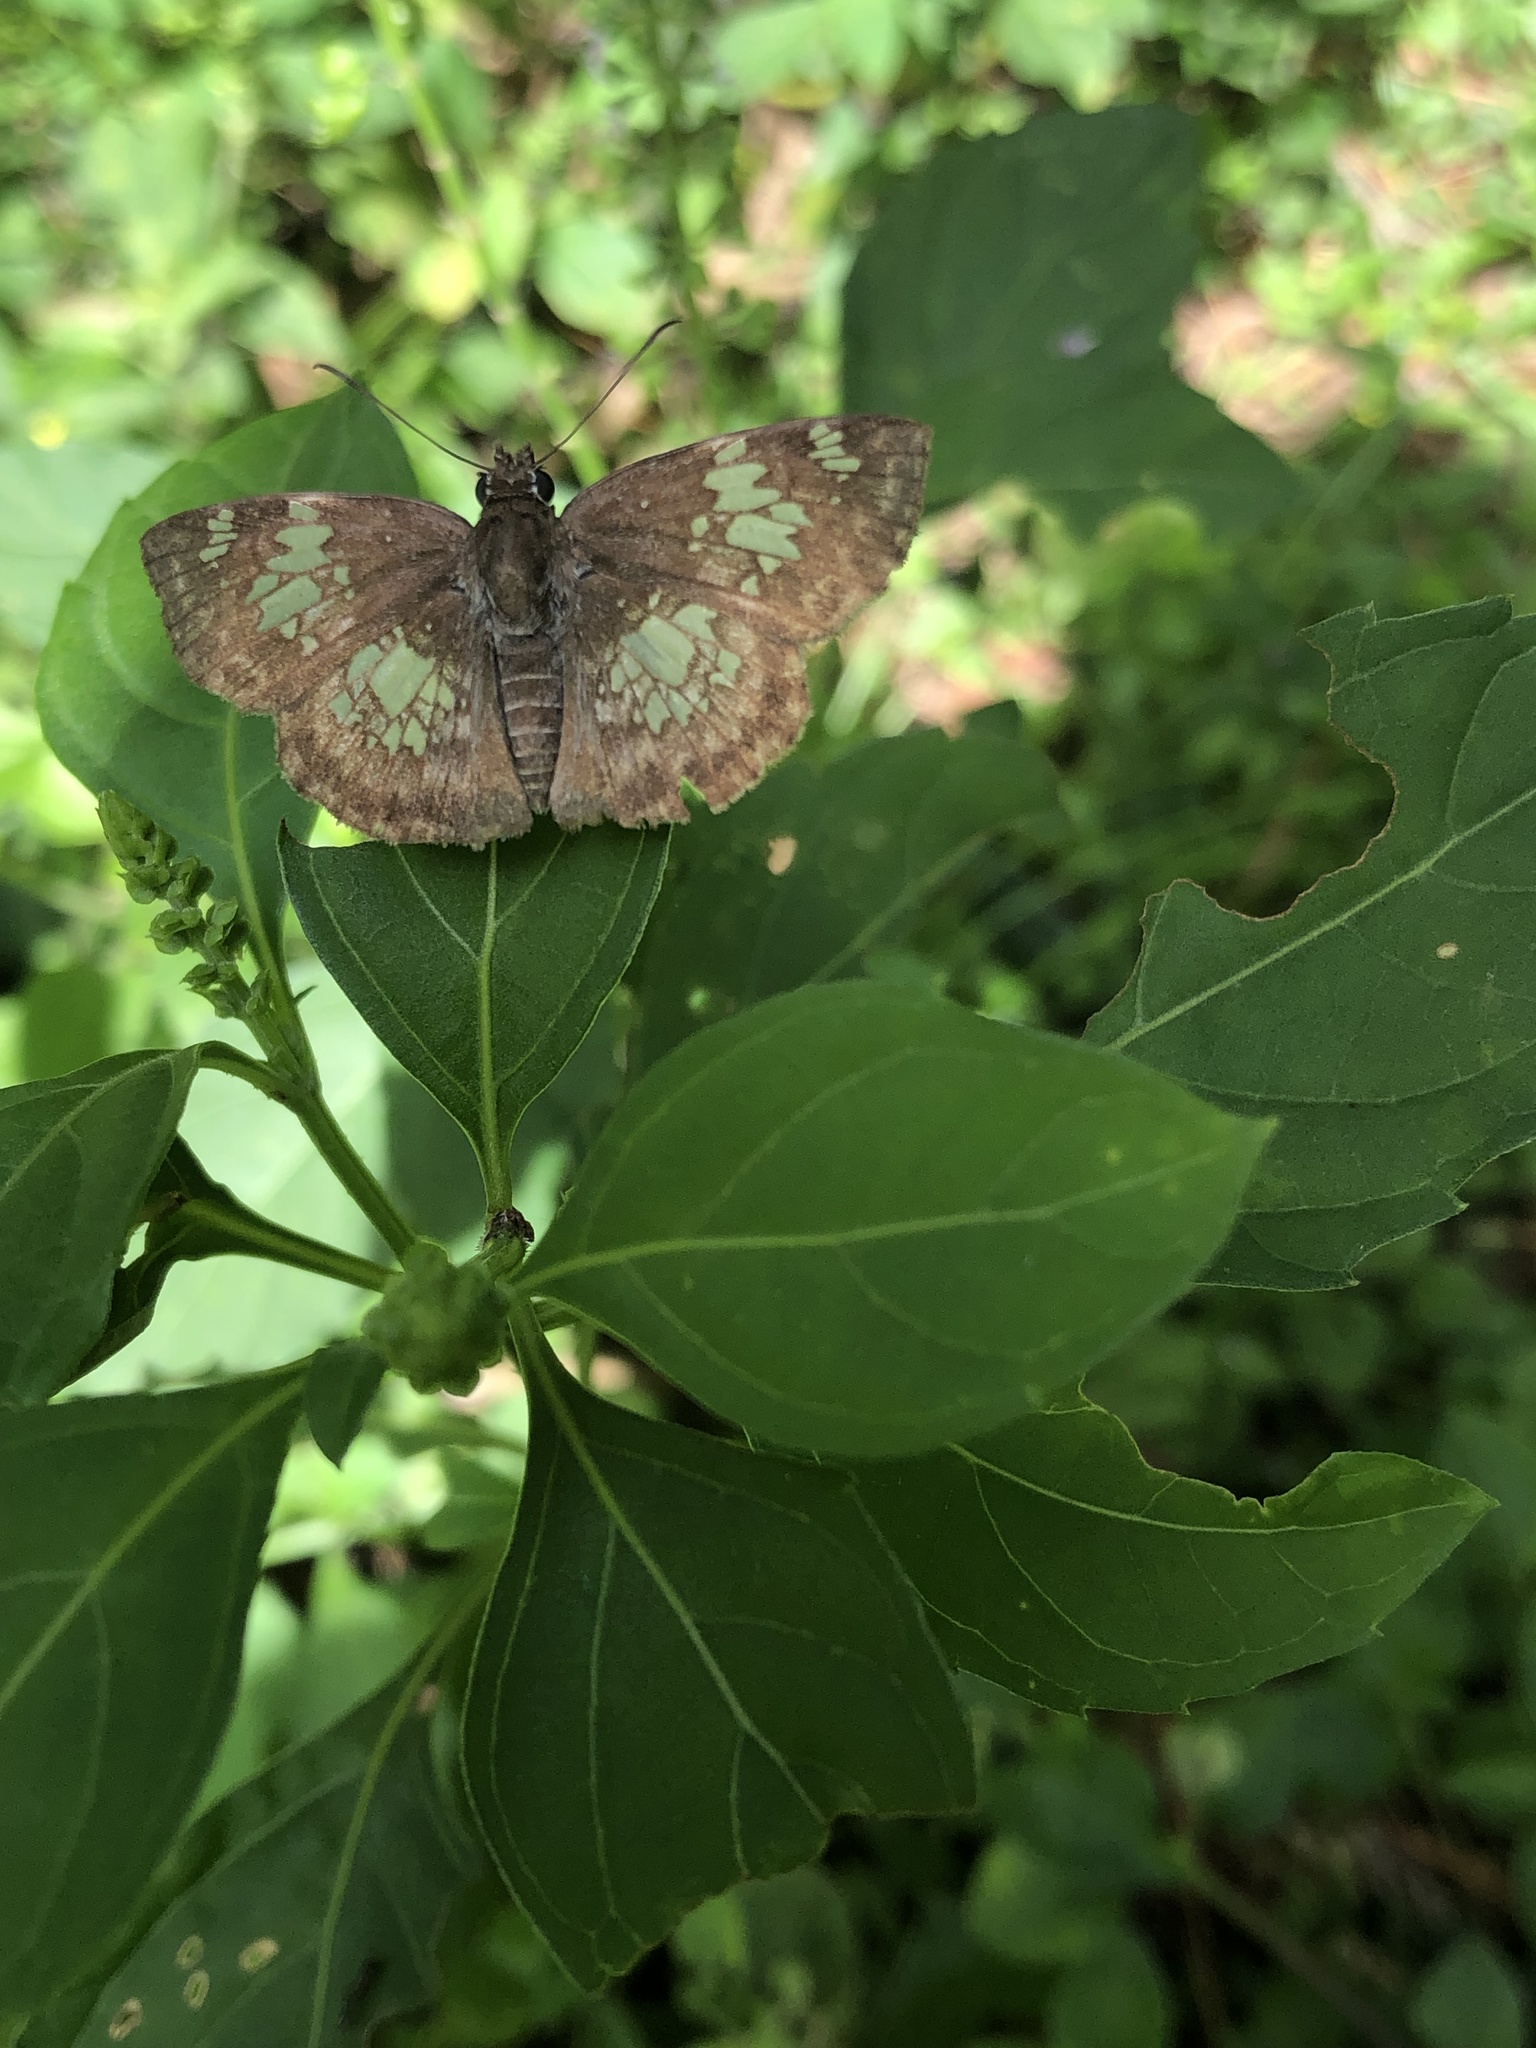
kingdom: Animalia
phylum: Arthropoda
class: Insecta
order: Lepidoptera
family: Hesperiidae
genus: Xenophanes
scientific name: Xenophanes tryxus
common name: Glassy-winged skipper
